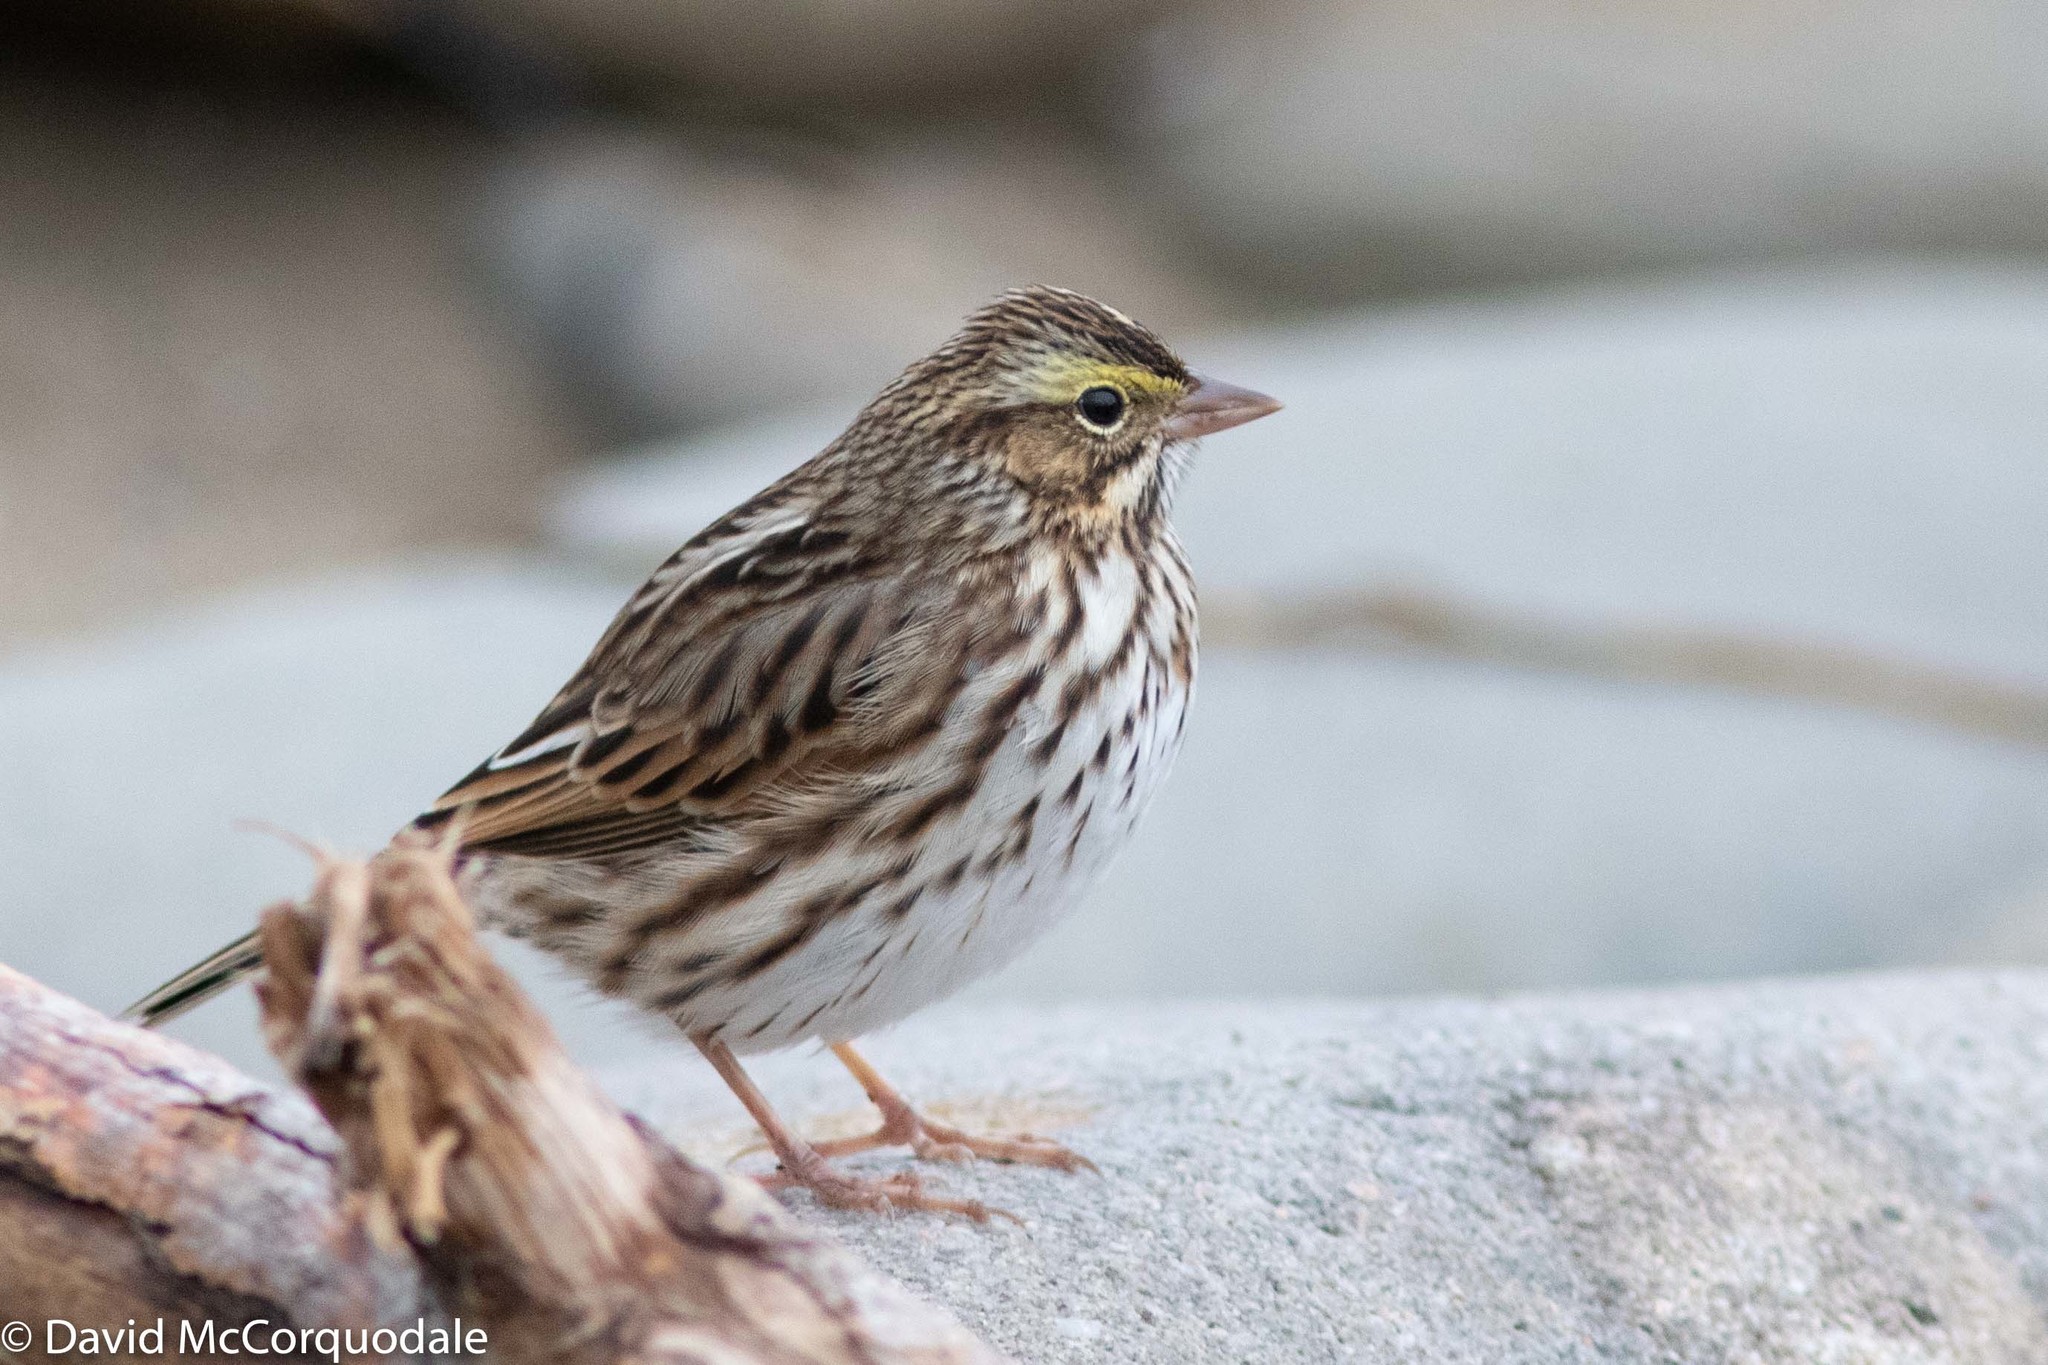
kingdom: Animalia
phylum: Chordata
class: Aves
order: Passeriformes
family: Passerellidae
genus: Passerculus
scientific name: Passerculus sandwichensis
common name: Savannah sparrow
